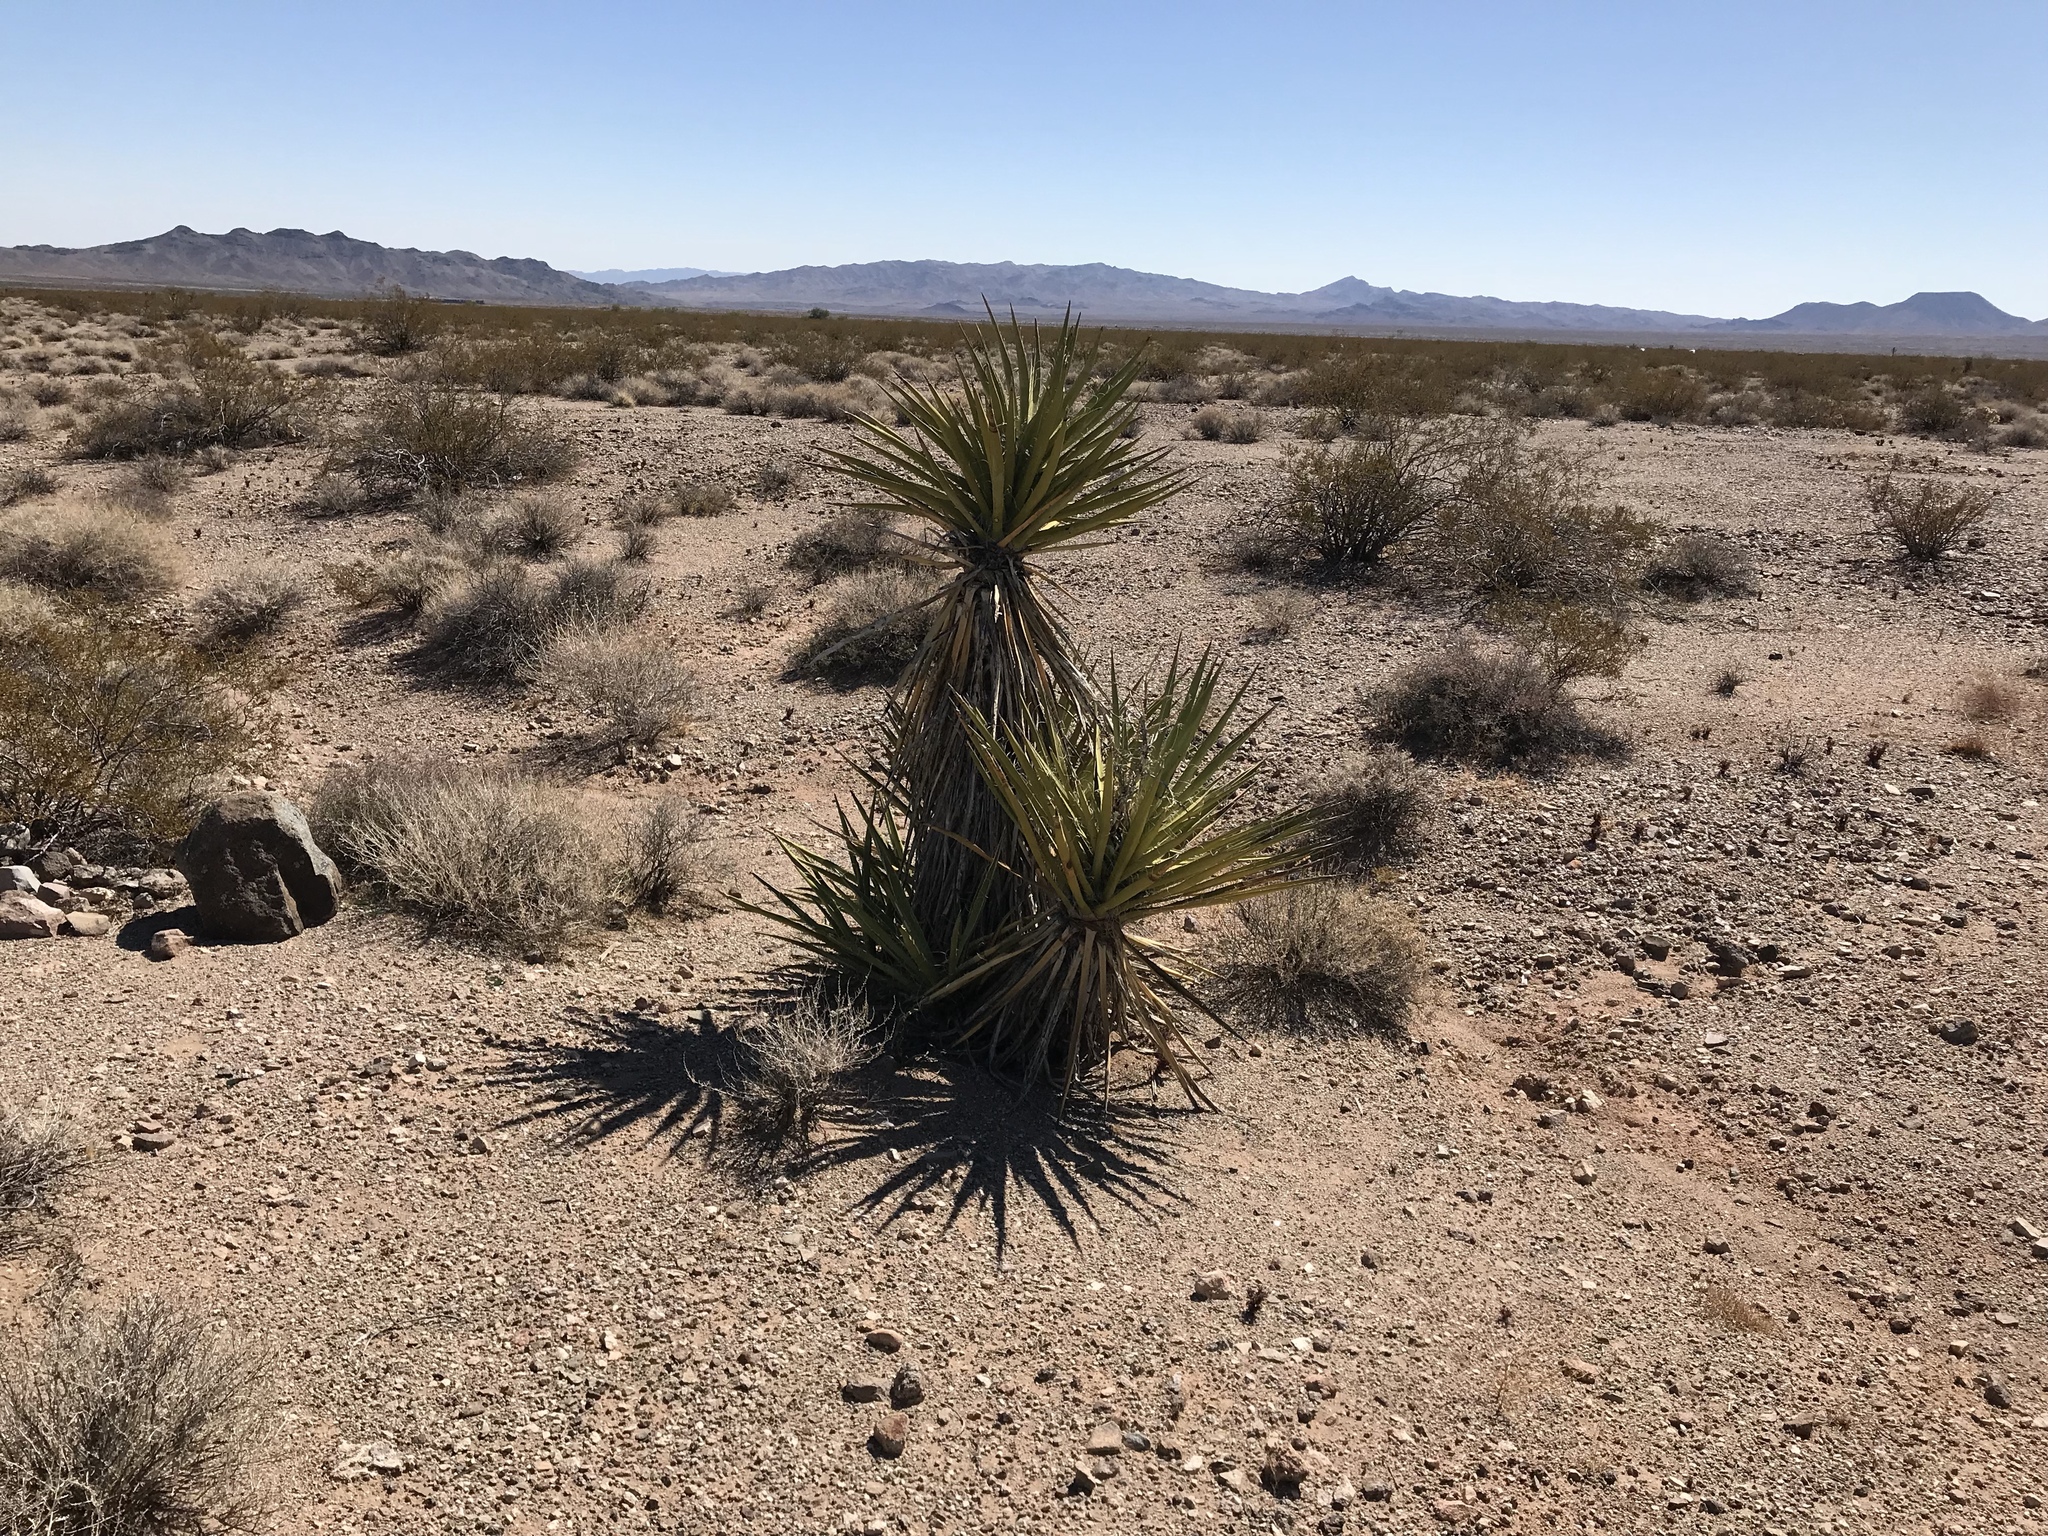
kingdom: Plantae
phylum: Tracheophyta
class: Liliopsida
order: Asparagales
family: Asparagaceae
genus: Yucca
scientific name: Yucca schidigera
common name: Mojave yucca
